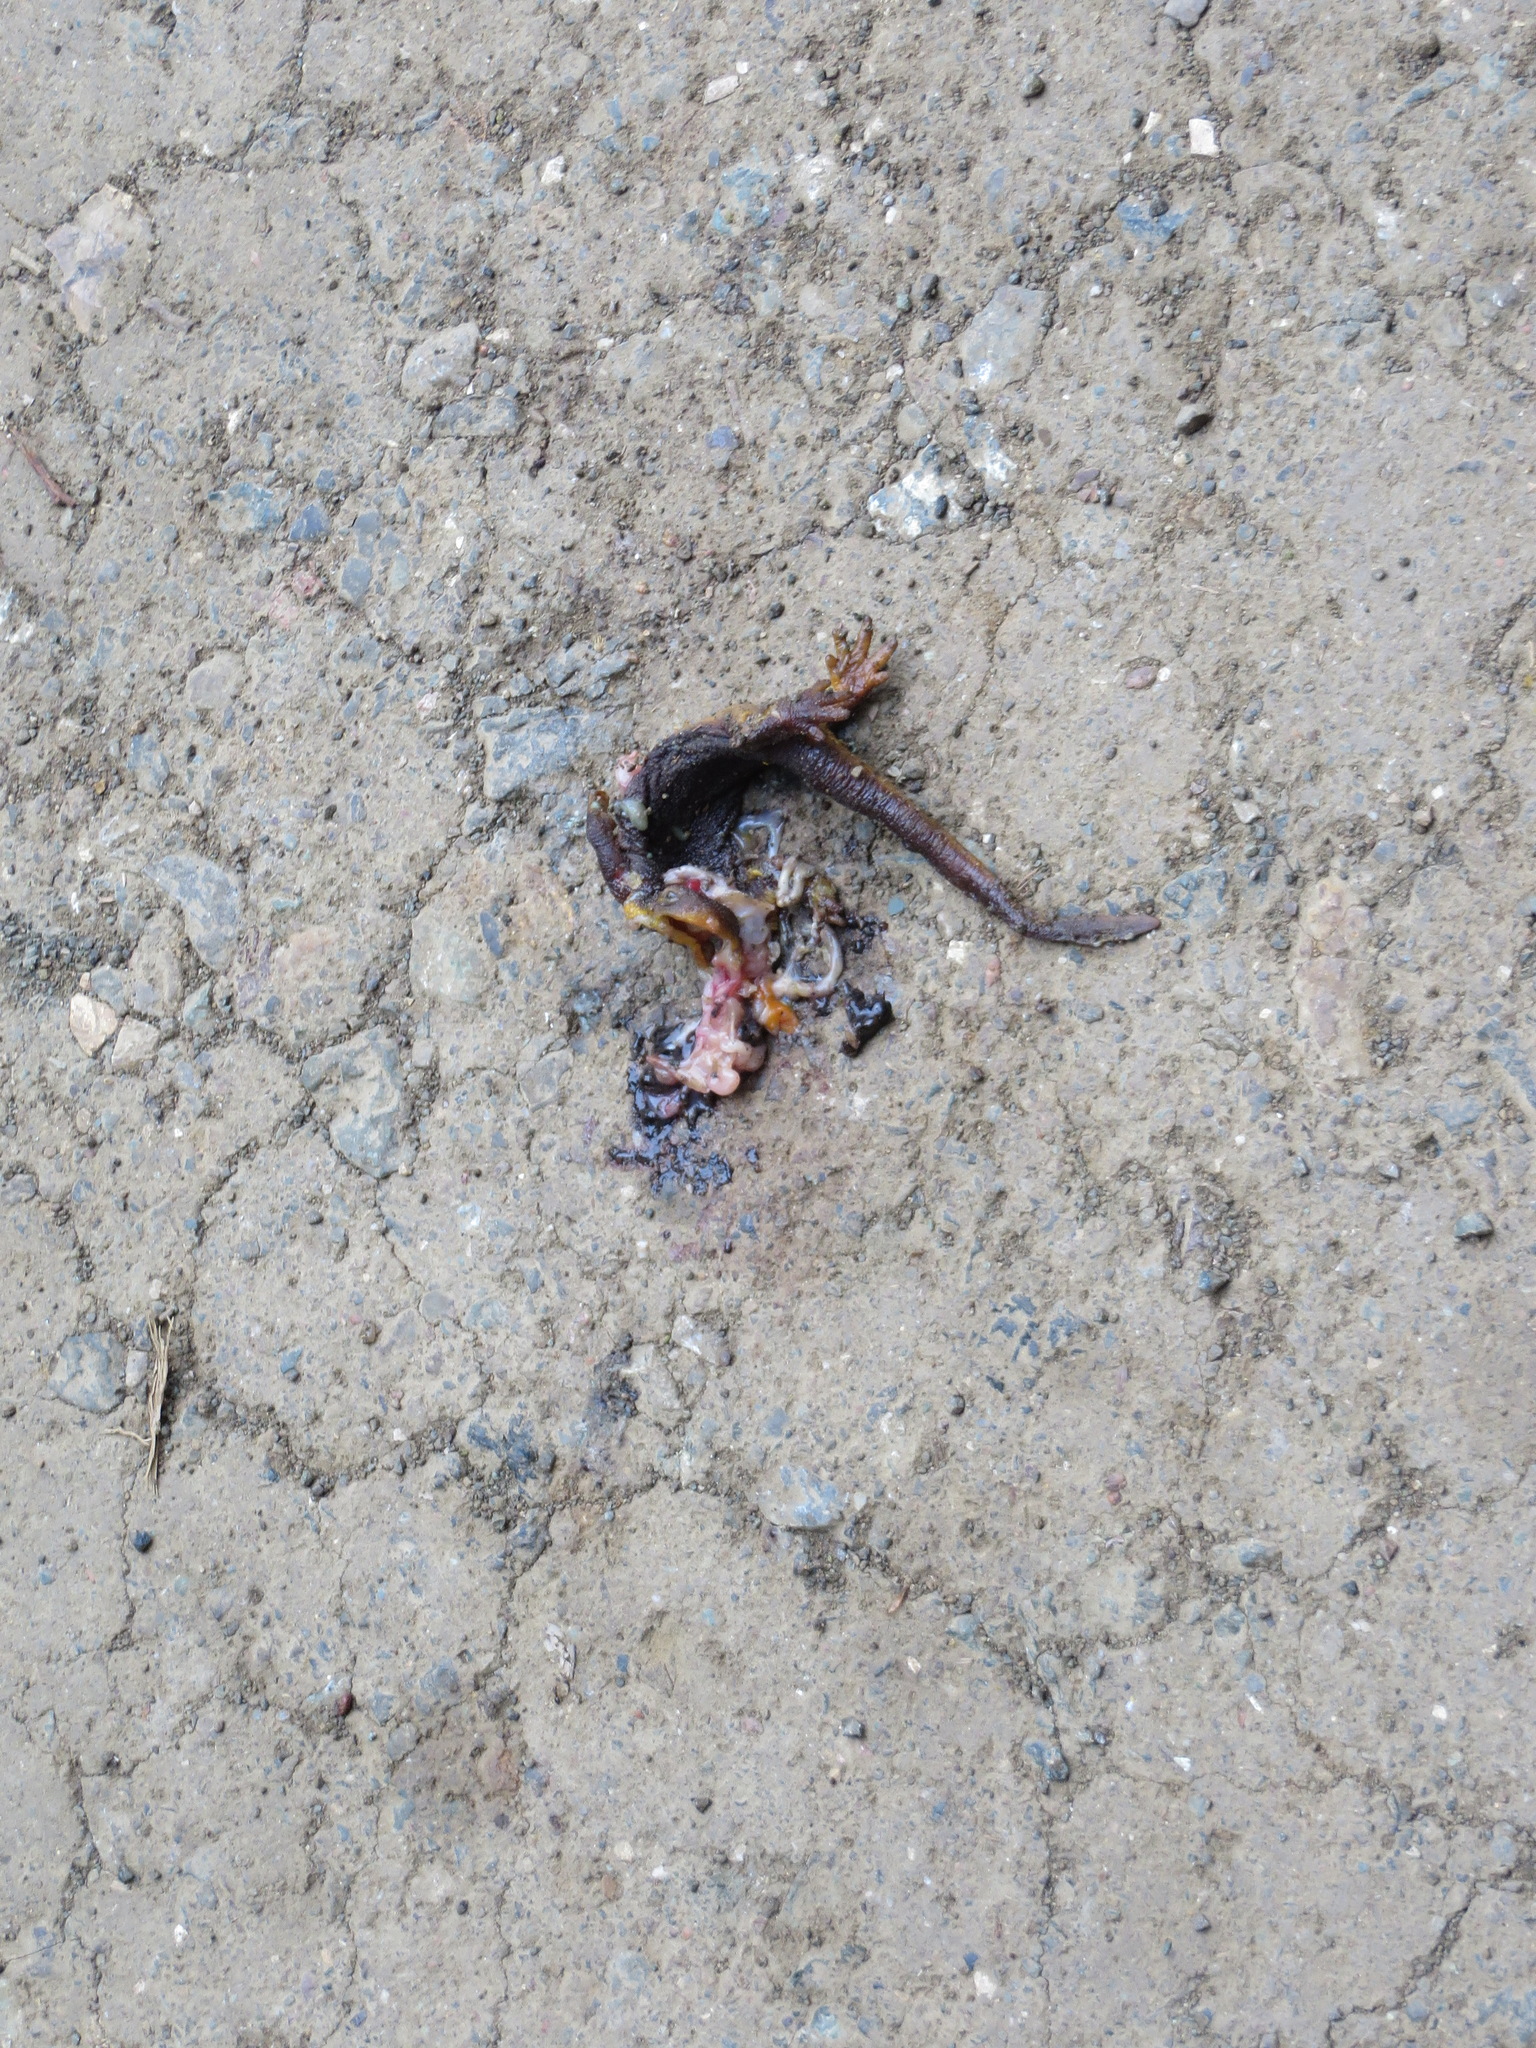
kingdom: Animalia
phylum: Chordata
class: Amphibia
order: Caudata
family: Salamandridae
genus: Taricha
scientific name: Taricha torosa
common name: California newt
